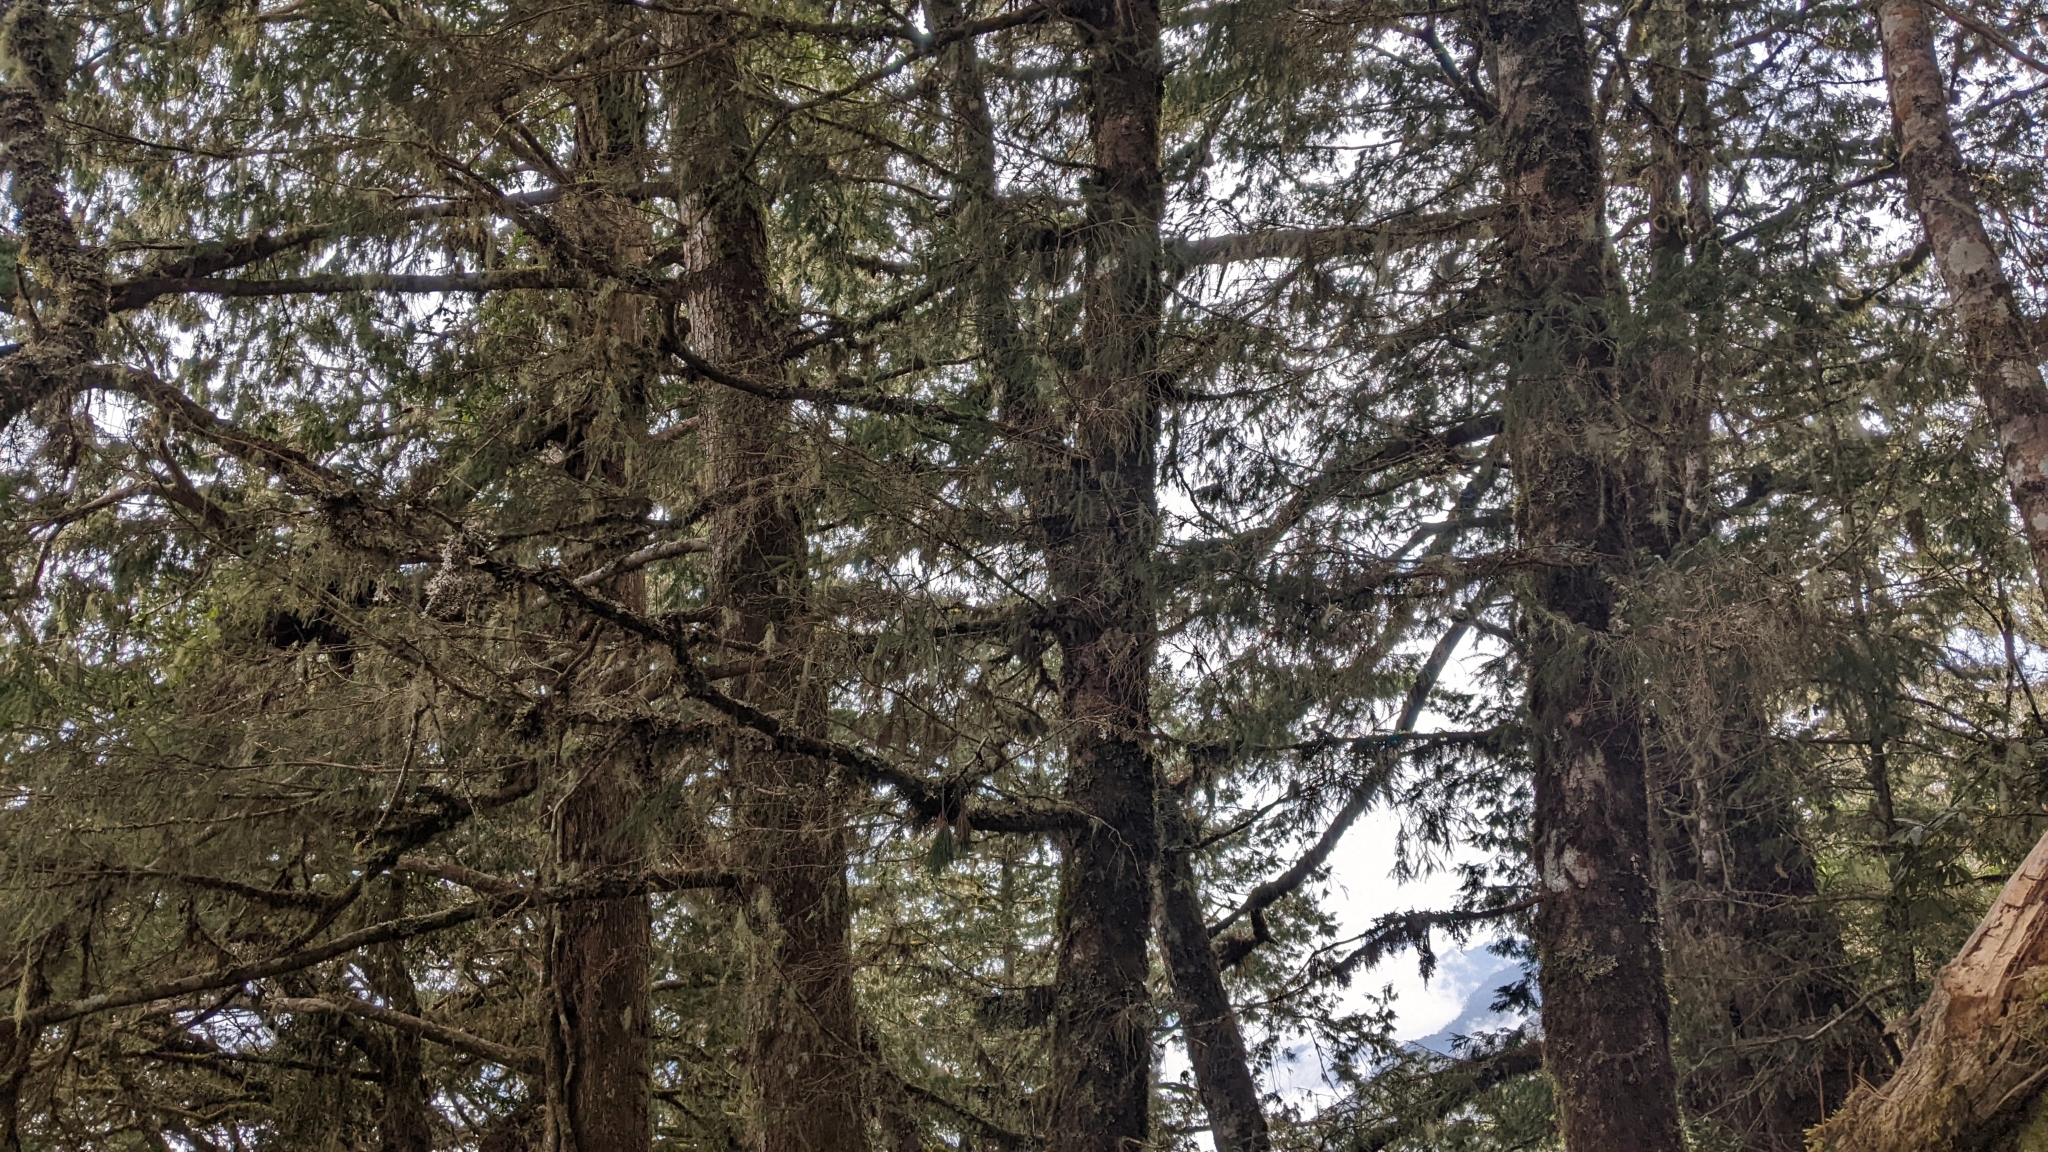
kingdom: Plantae
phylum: Tracheophyta
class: Pinopsida
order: Pinales
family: Pinaceae
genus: Picea
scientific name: Picea morrisonicola
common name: Mount morrison spruce
